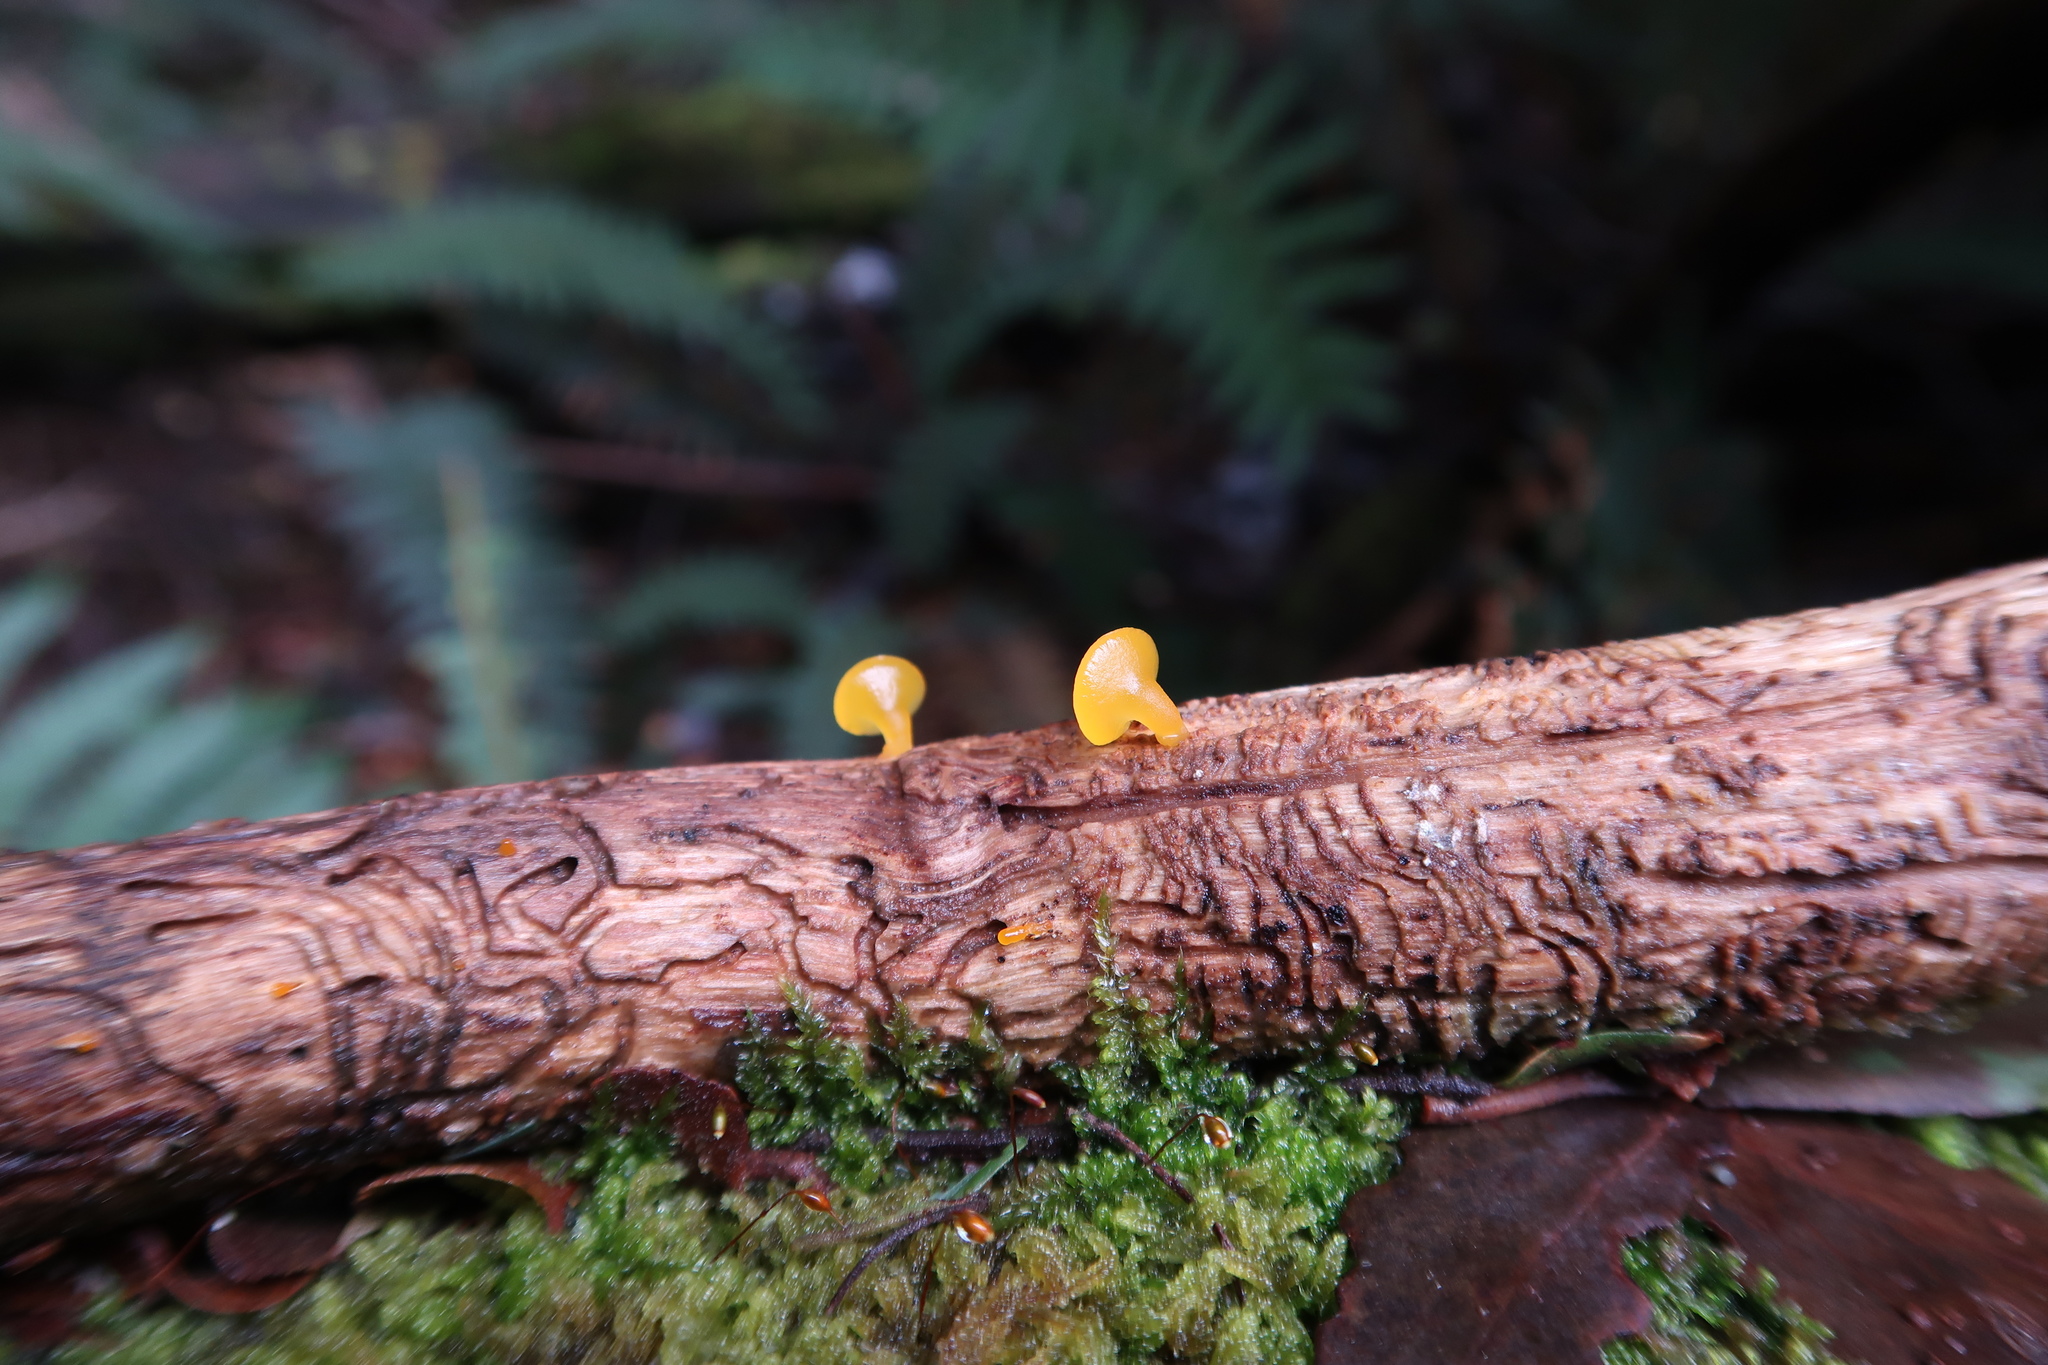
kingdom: Fungi
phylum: Basidiomycota
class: Dacrymycetes
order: Dacrymycetales
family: Dacrymycetaceae
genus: Heterotextus
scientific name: Heterotextus peziziformis
